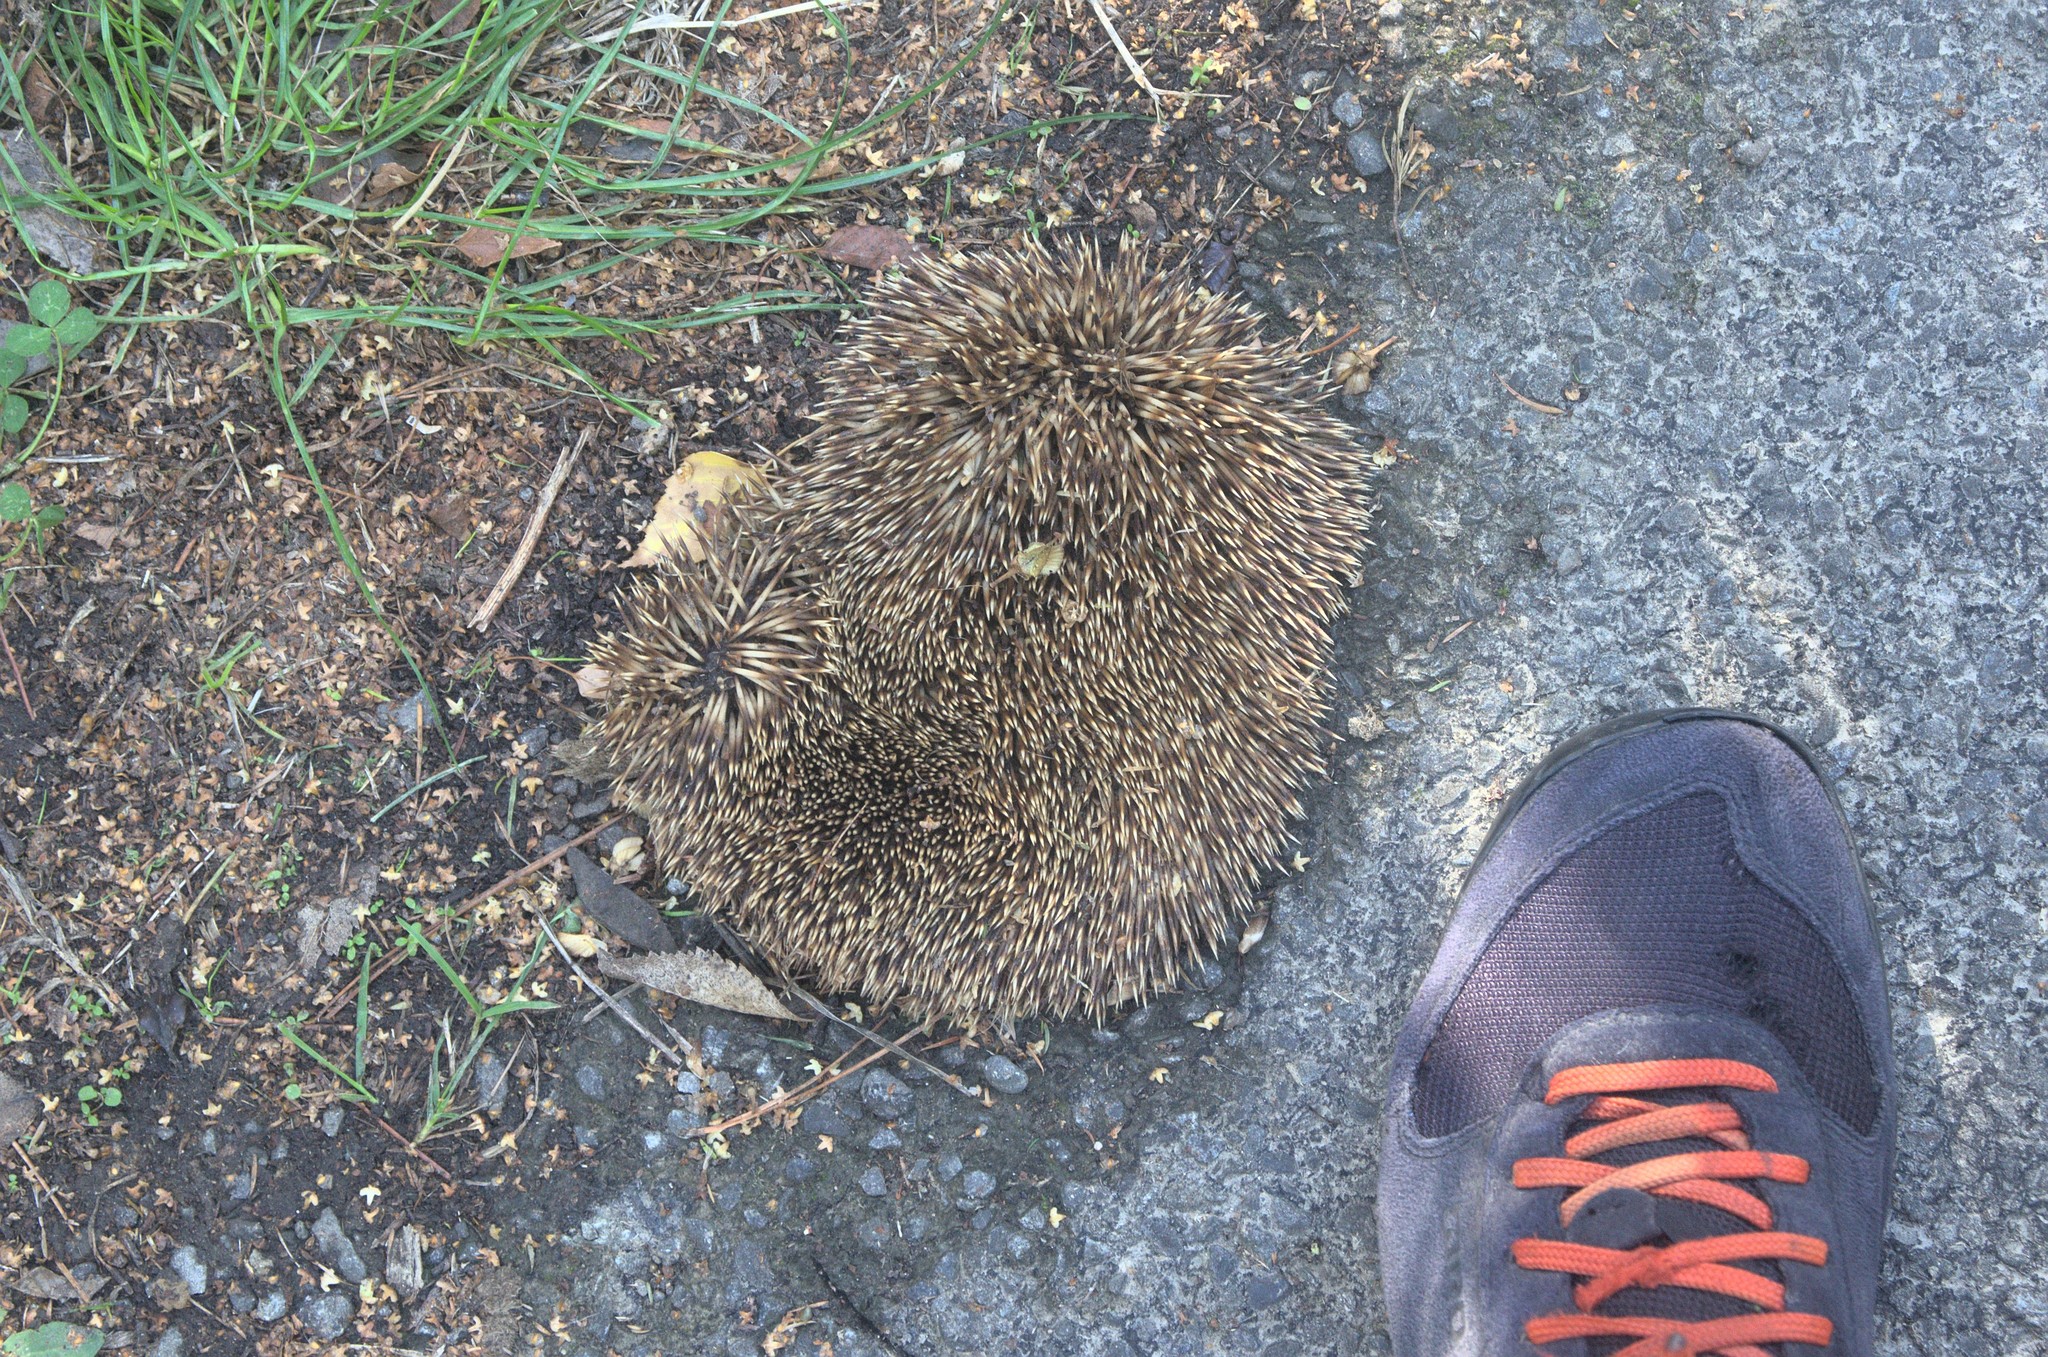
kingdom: Animalia
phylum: Chordata
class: Mammalia
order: Erinaceomorpha
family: Erinaceidae
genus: Erinaceus
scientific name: Erinaceus europaeus
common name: West european hedgehog
